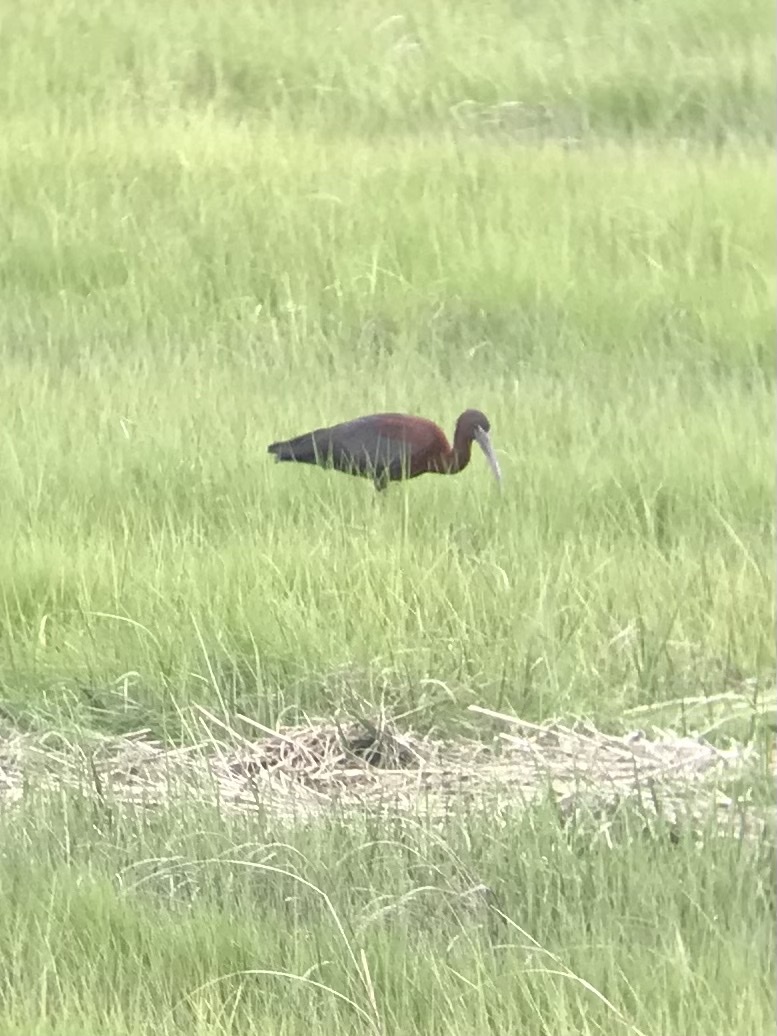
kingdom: Animalia
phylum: Chordata
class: Aves
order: Pelecaniformes
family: Threskiornithidae
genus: Plegadis
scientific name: Plegadis falcinellus
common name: Glossy ibis
